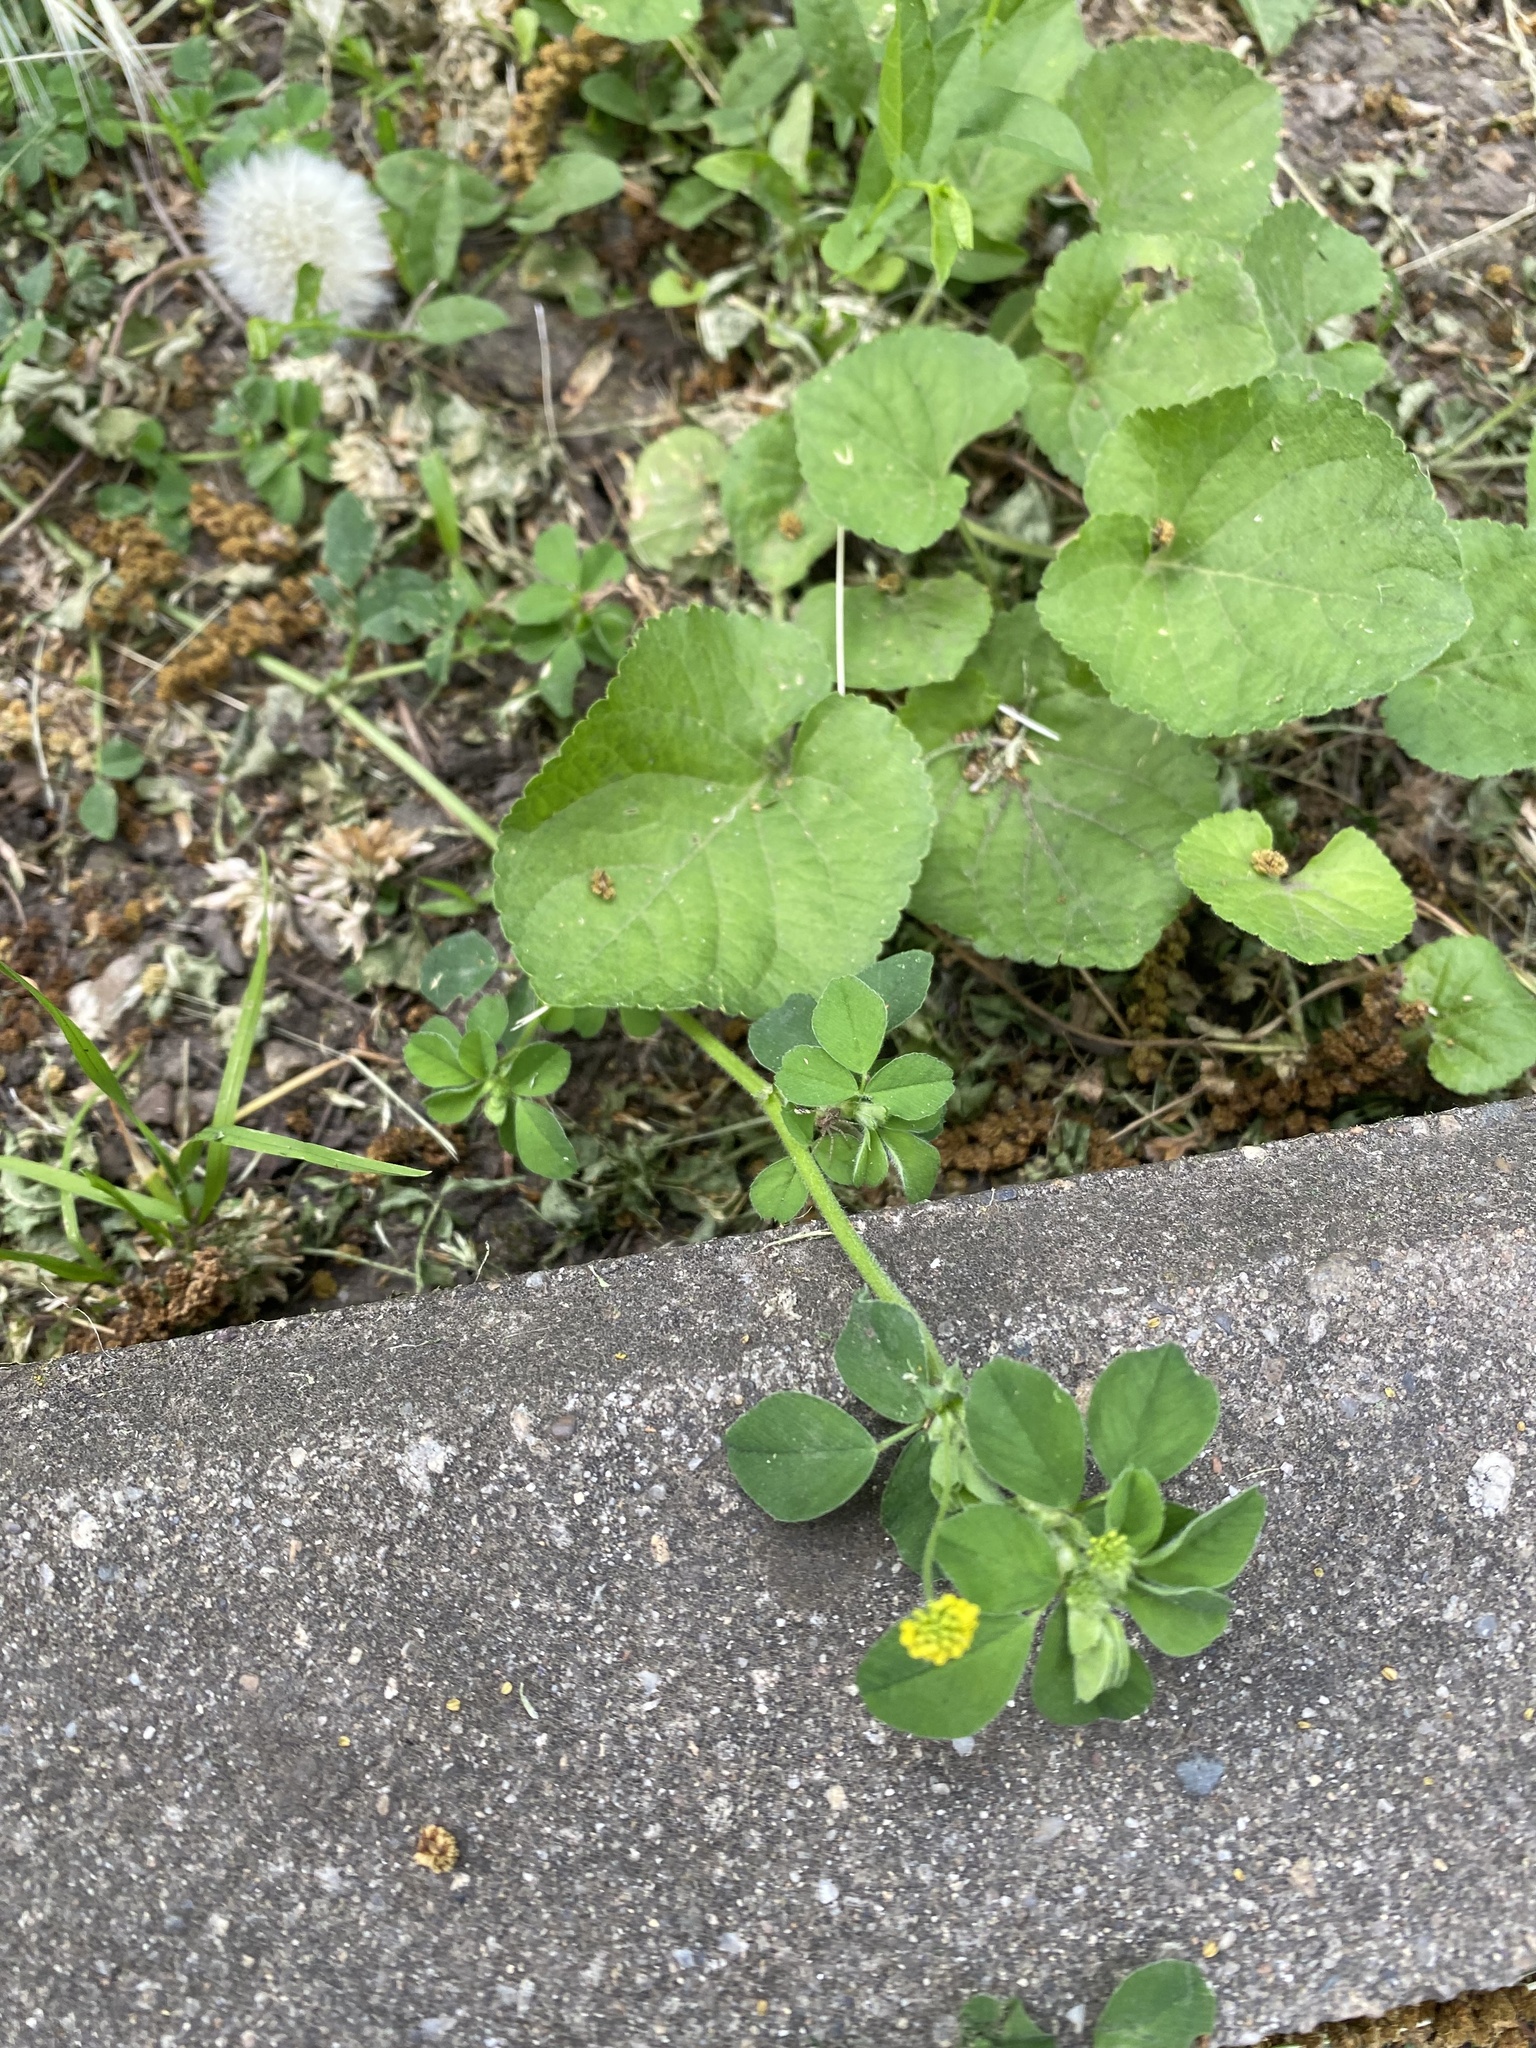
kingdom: Plantae
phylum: Tracheophyta
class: Magnoliopsida
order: Fabales
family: Fabaceae
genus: Medicago
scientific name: Medicago lupulina
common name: Black medick
